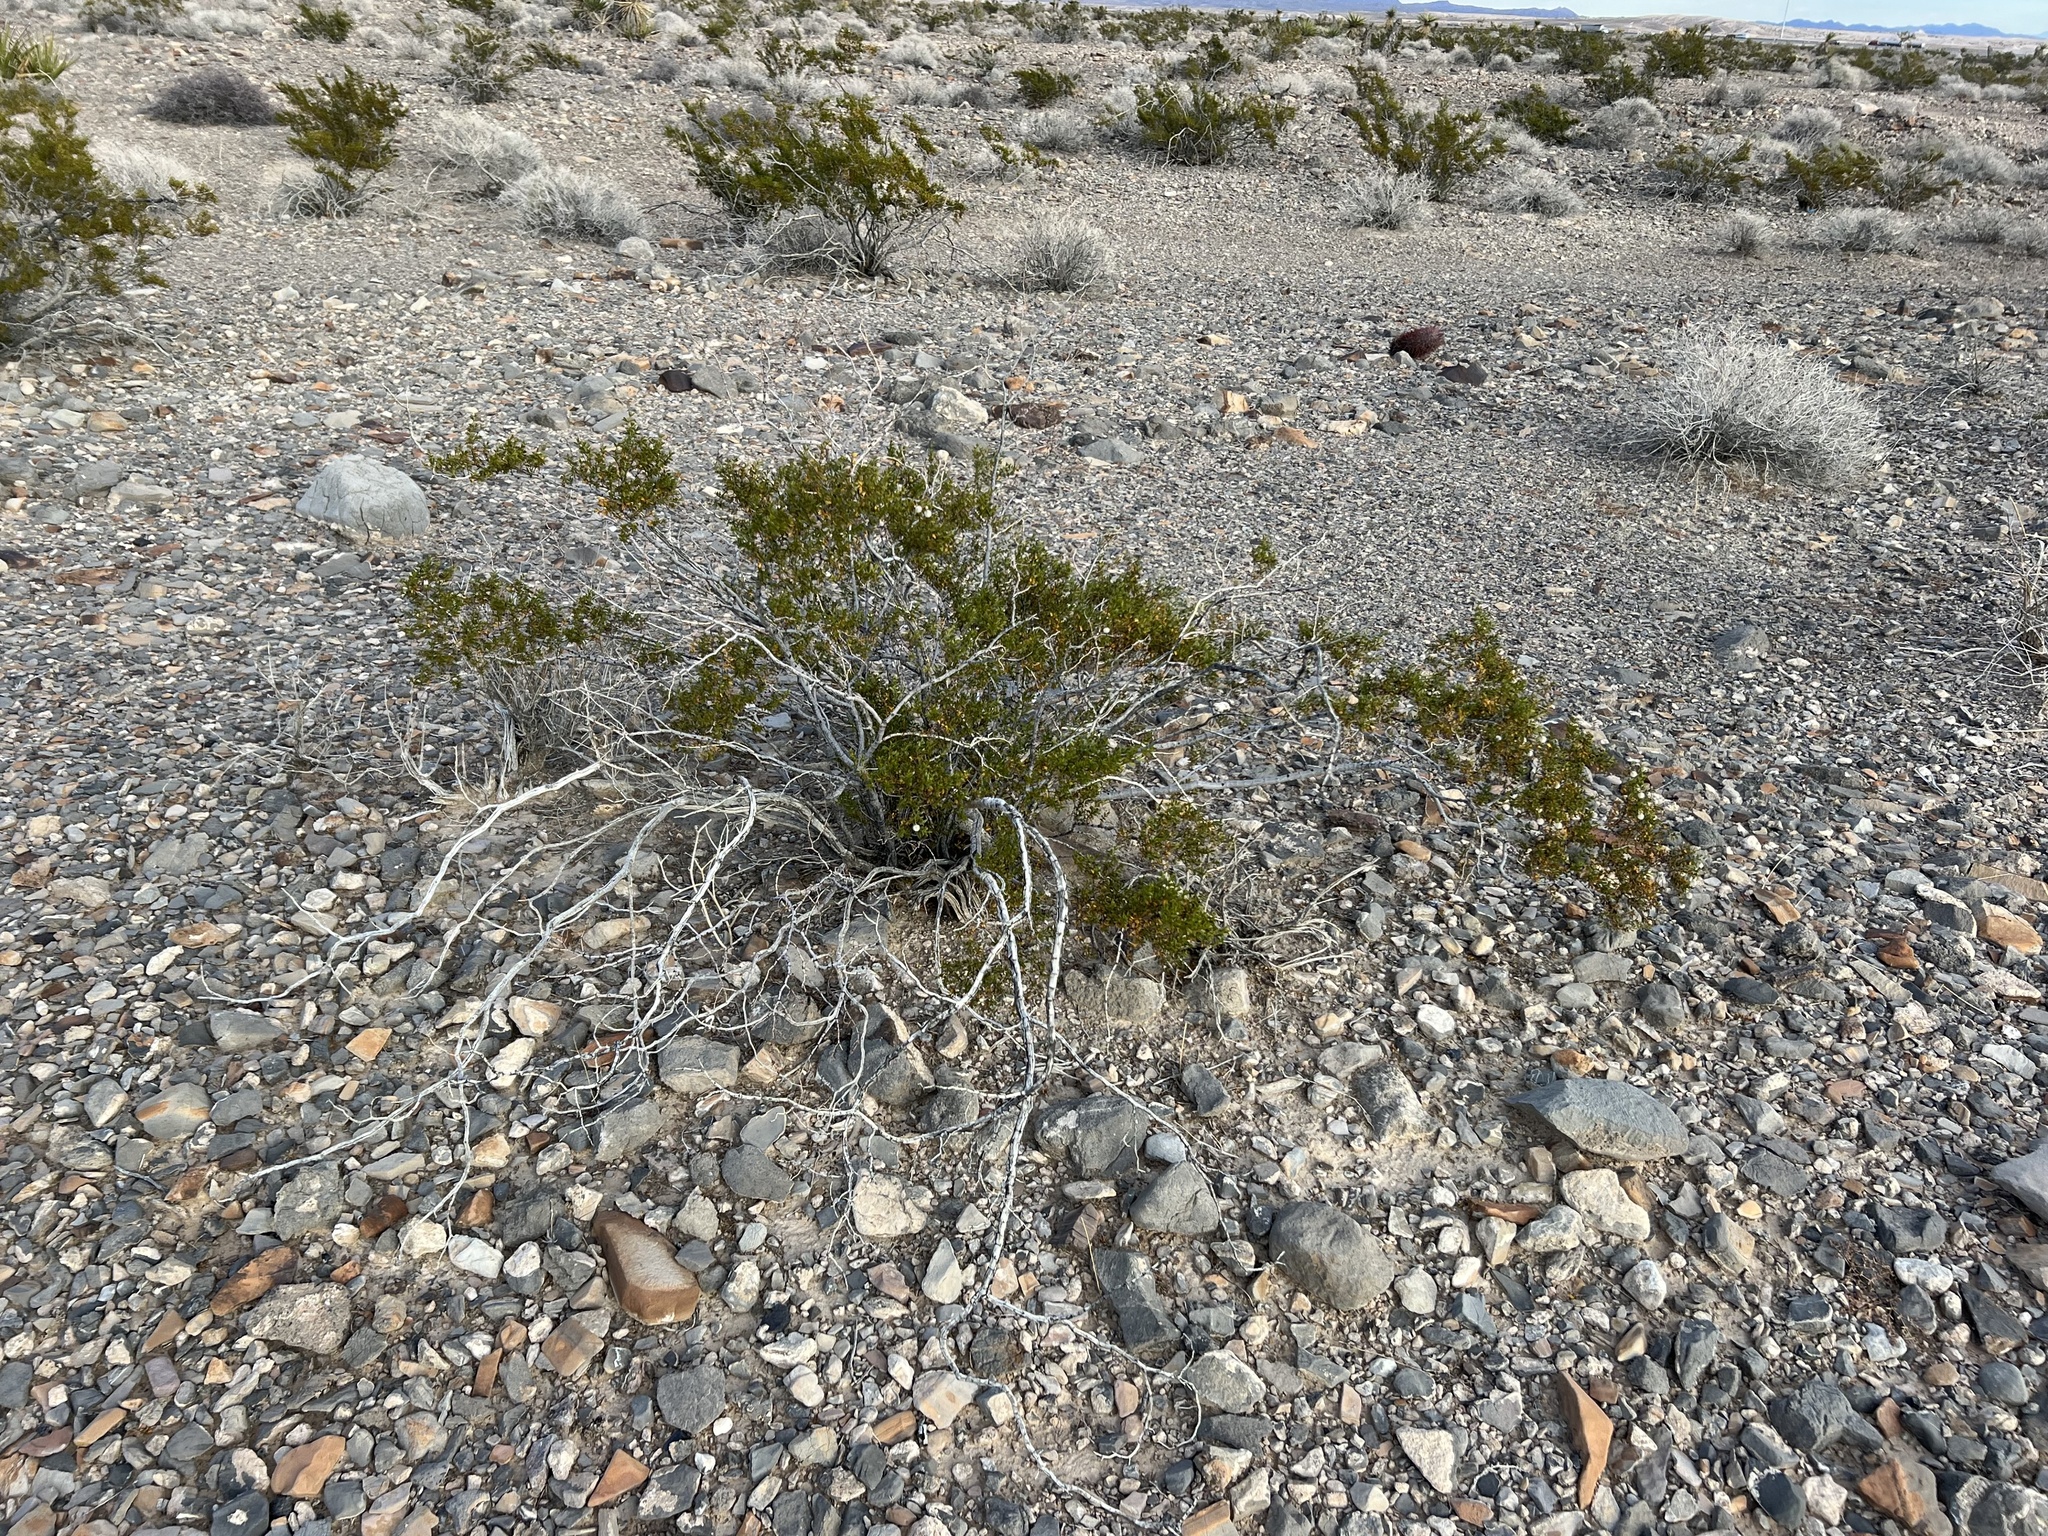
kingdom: Plantae
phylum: Tracheophyta
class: Magnoliopsida
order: Zygophyllales
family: Zygophyllaceae
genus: Larrea
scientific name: Larrea tridentata
